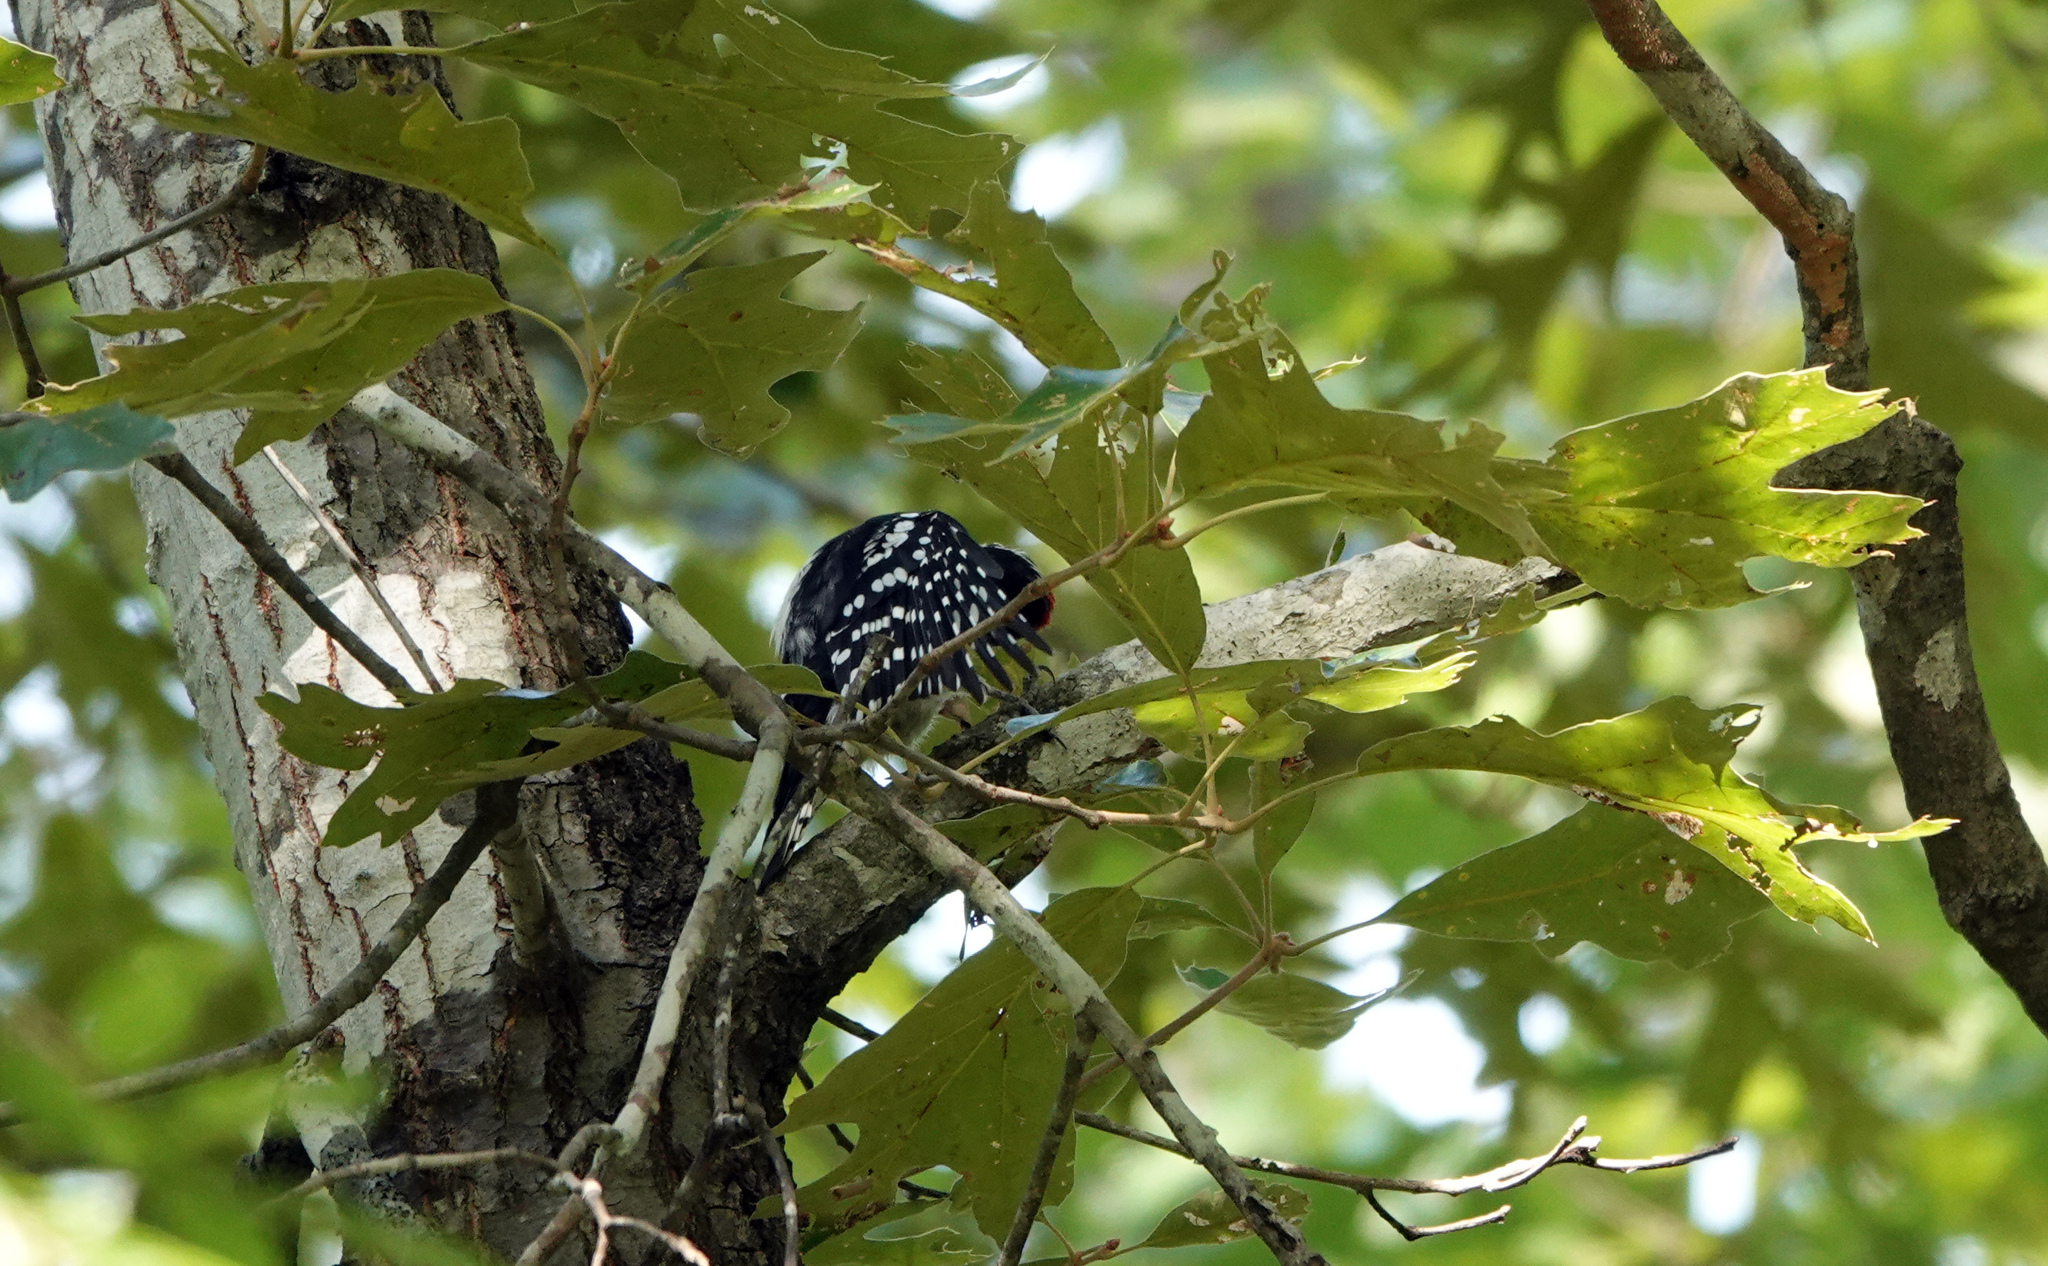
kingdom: Animalia
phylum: Chordata
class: Aves
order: Piciformes
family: Picidae
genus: Dryobates
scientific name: Dryobates pubescens
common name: Downy woodpecker
